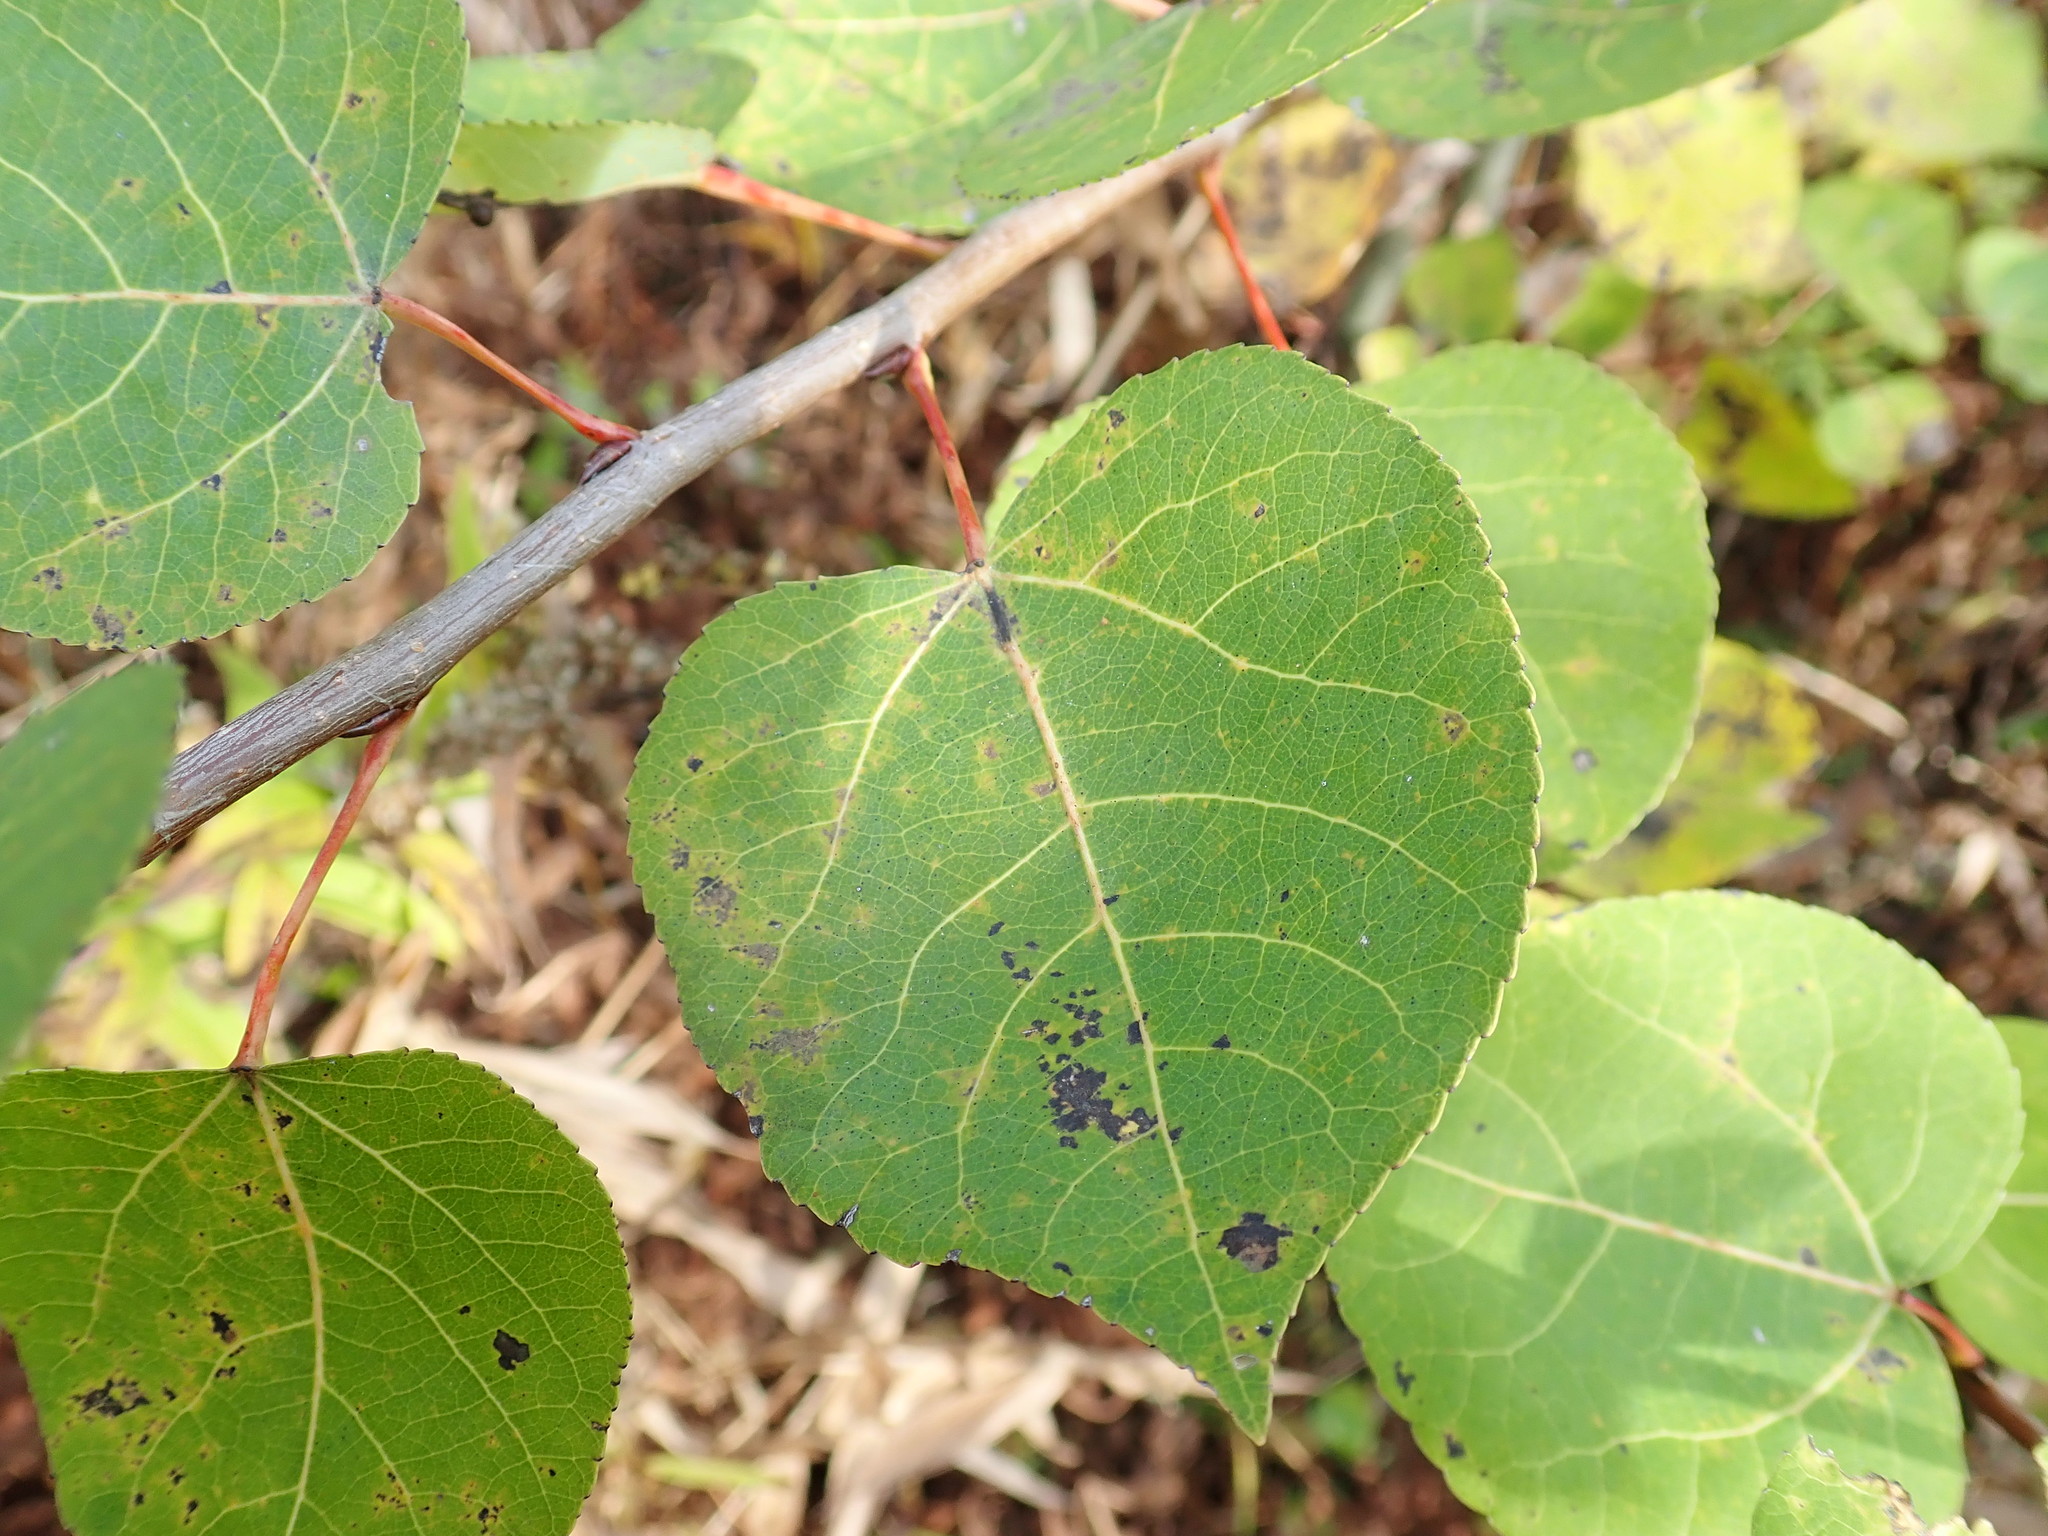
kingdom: Plantae
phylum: Tracheophyta
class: Magnoliopsida
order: Malpighiales
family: Salicaceae
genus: Populus
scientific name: Populus tremuloides
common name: Quaking aspen
